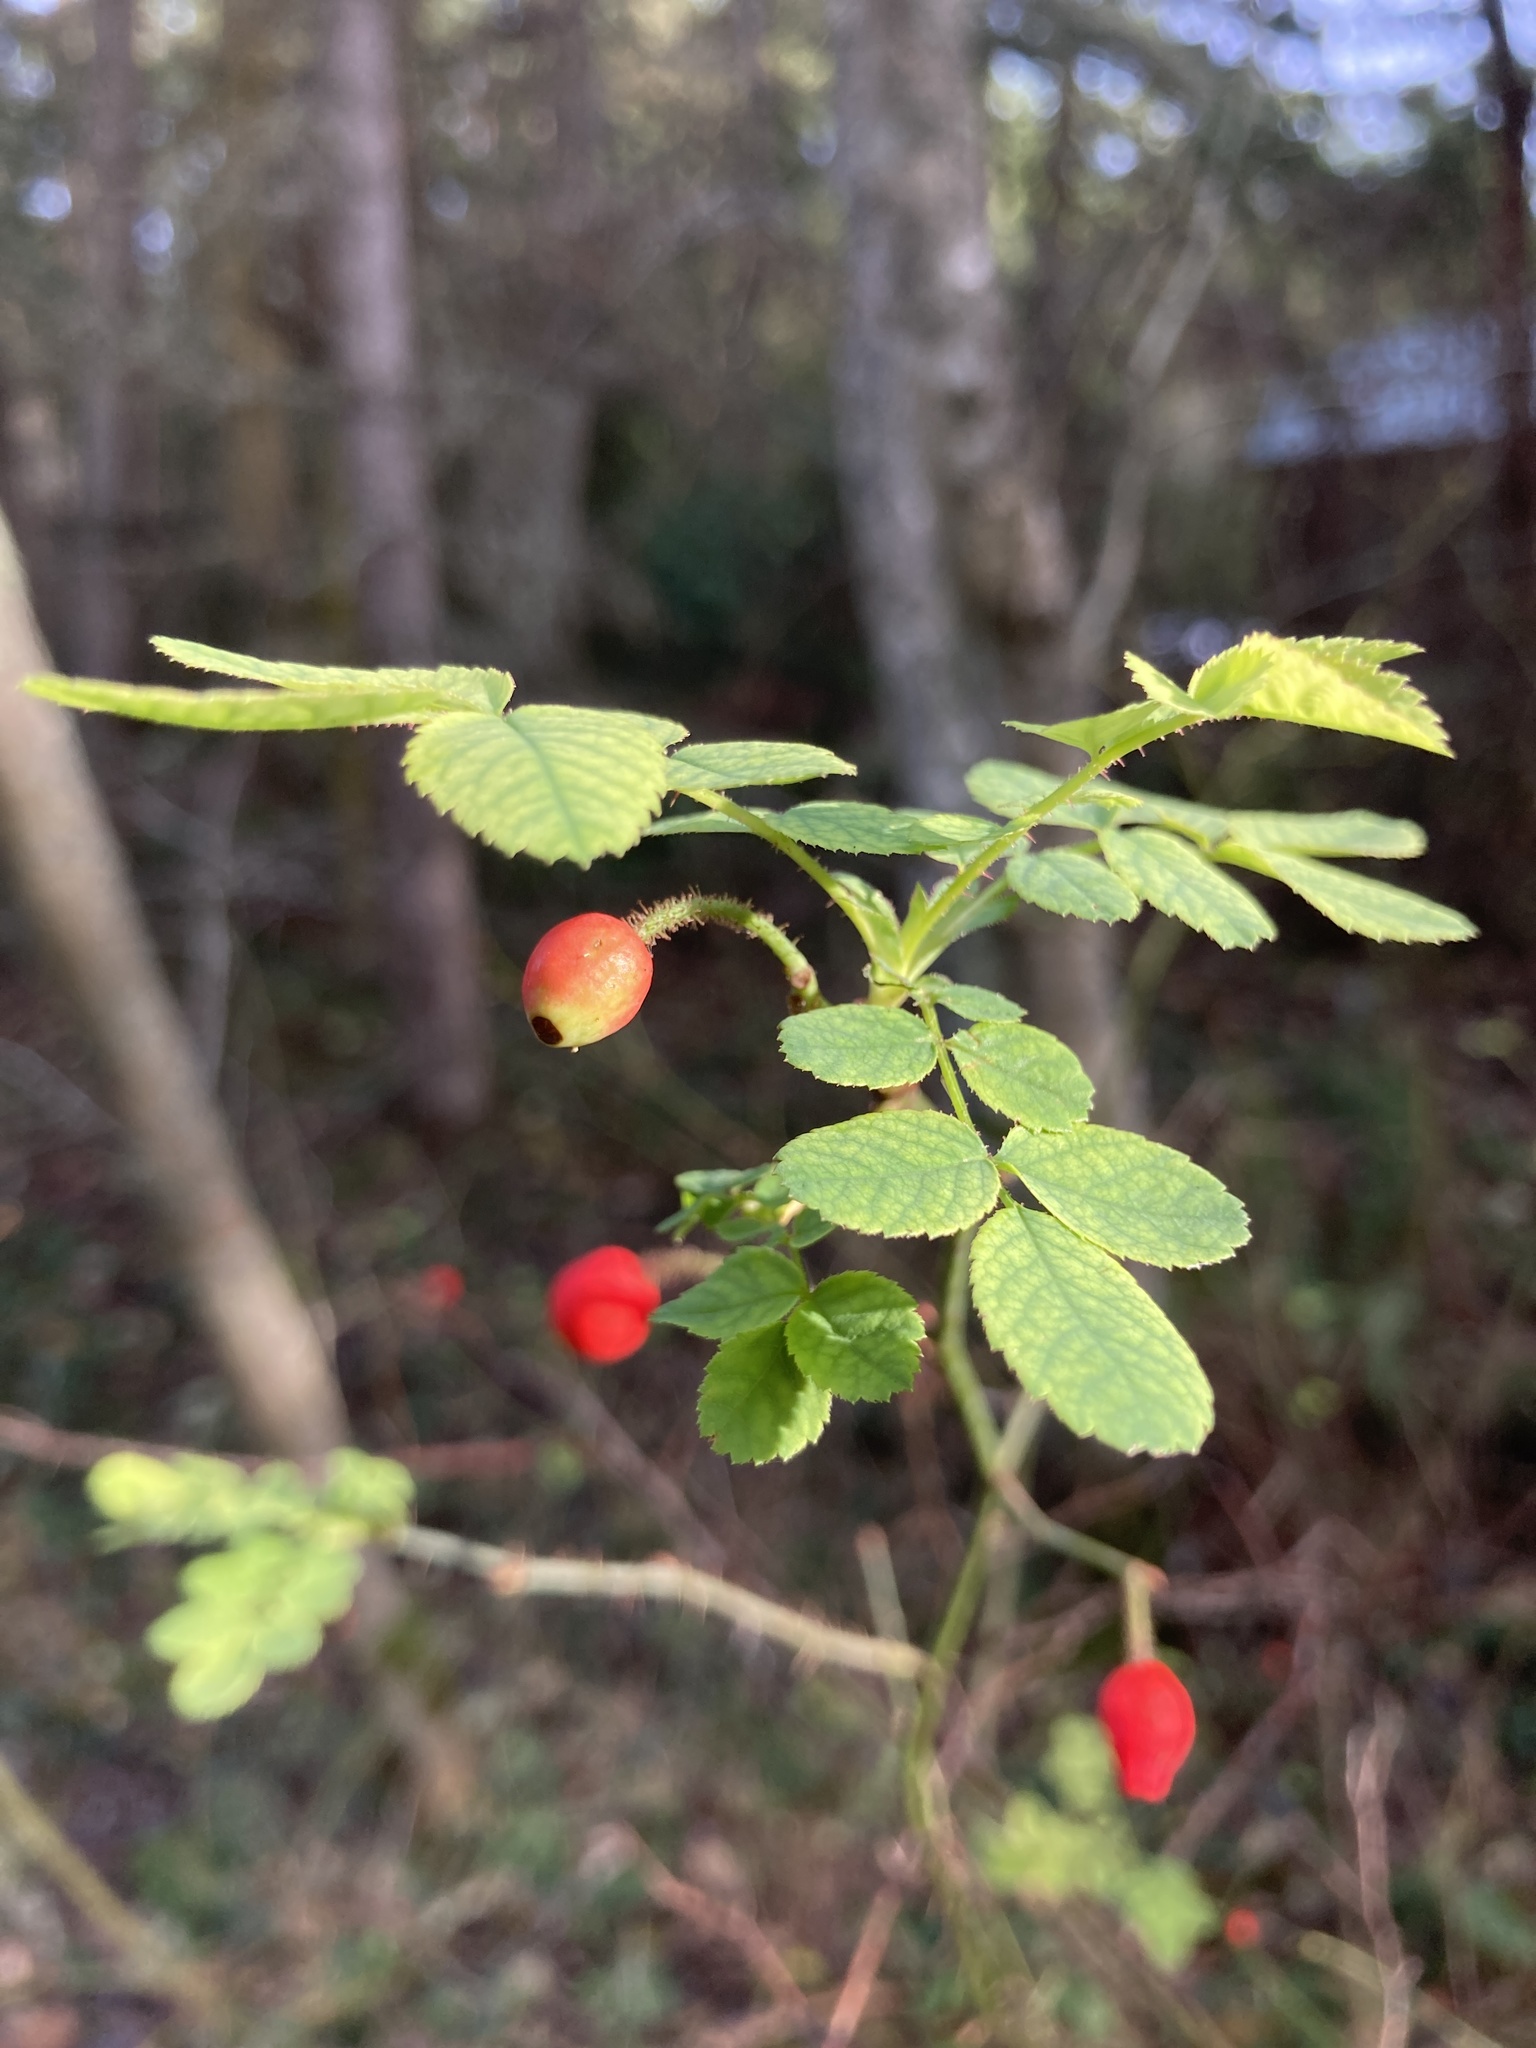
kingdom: Plantae
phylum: Tracheophyta
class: Magnoliopsida
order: Rosales
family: Rosaceae
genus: Rosa
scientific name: Rosa gymnocarpa
